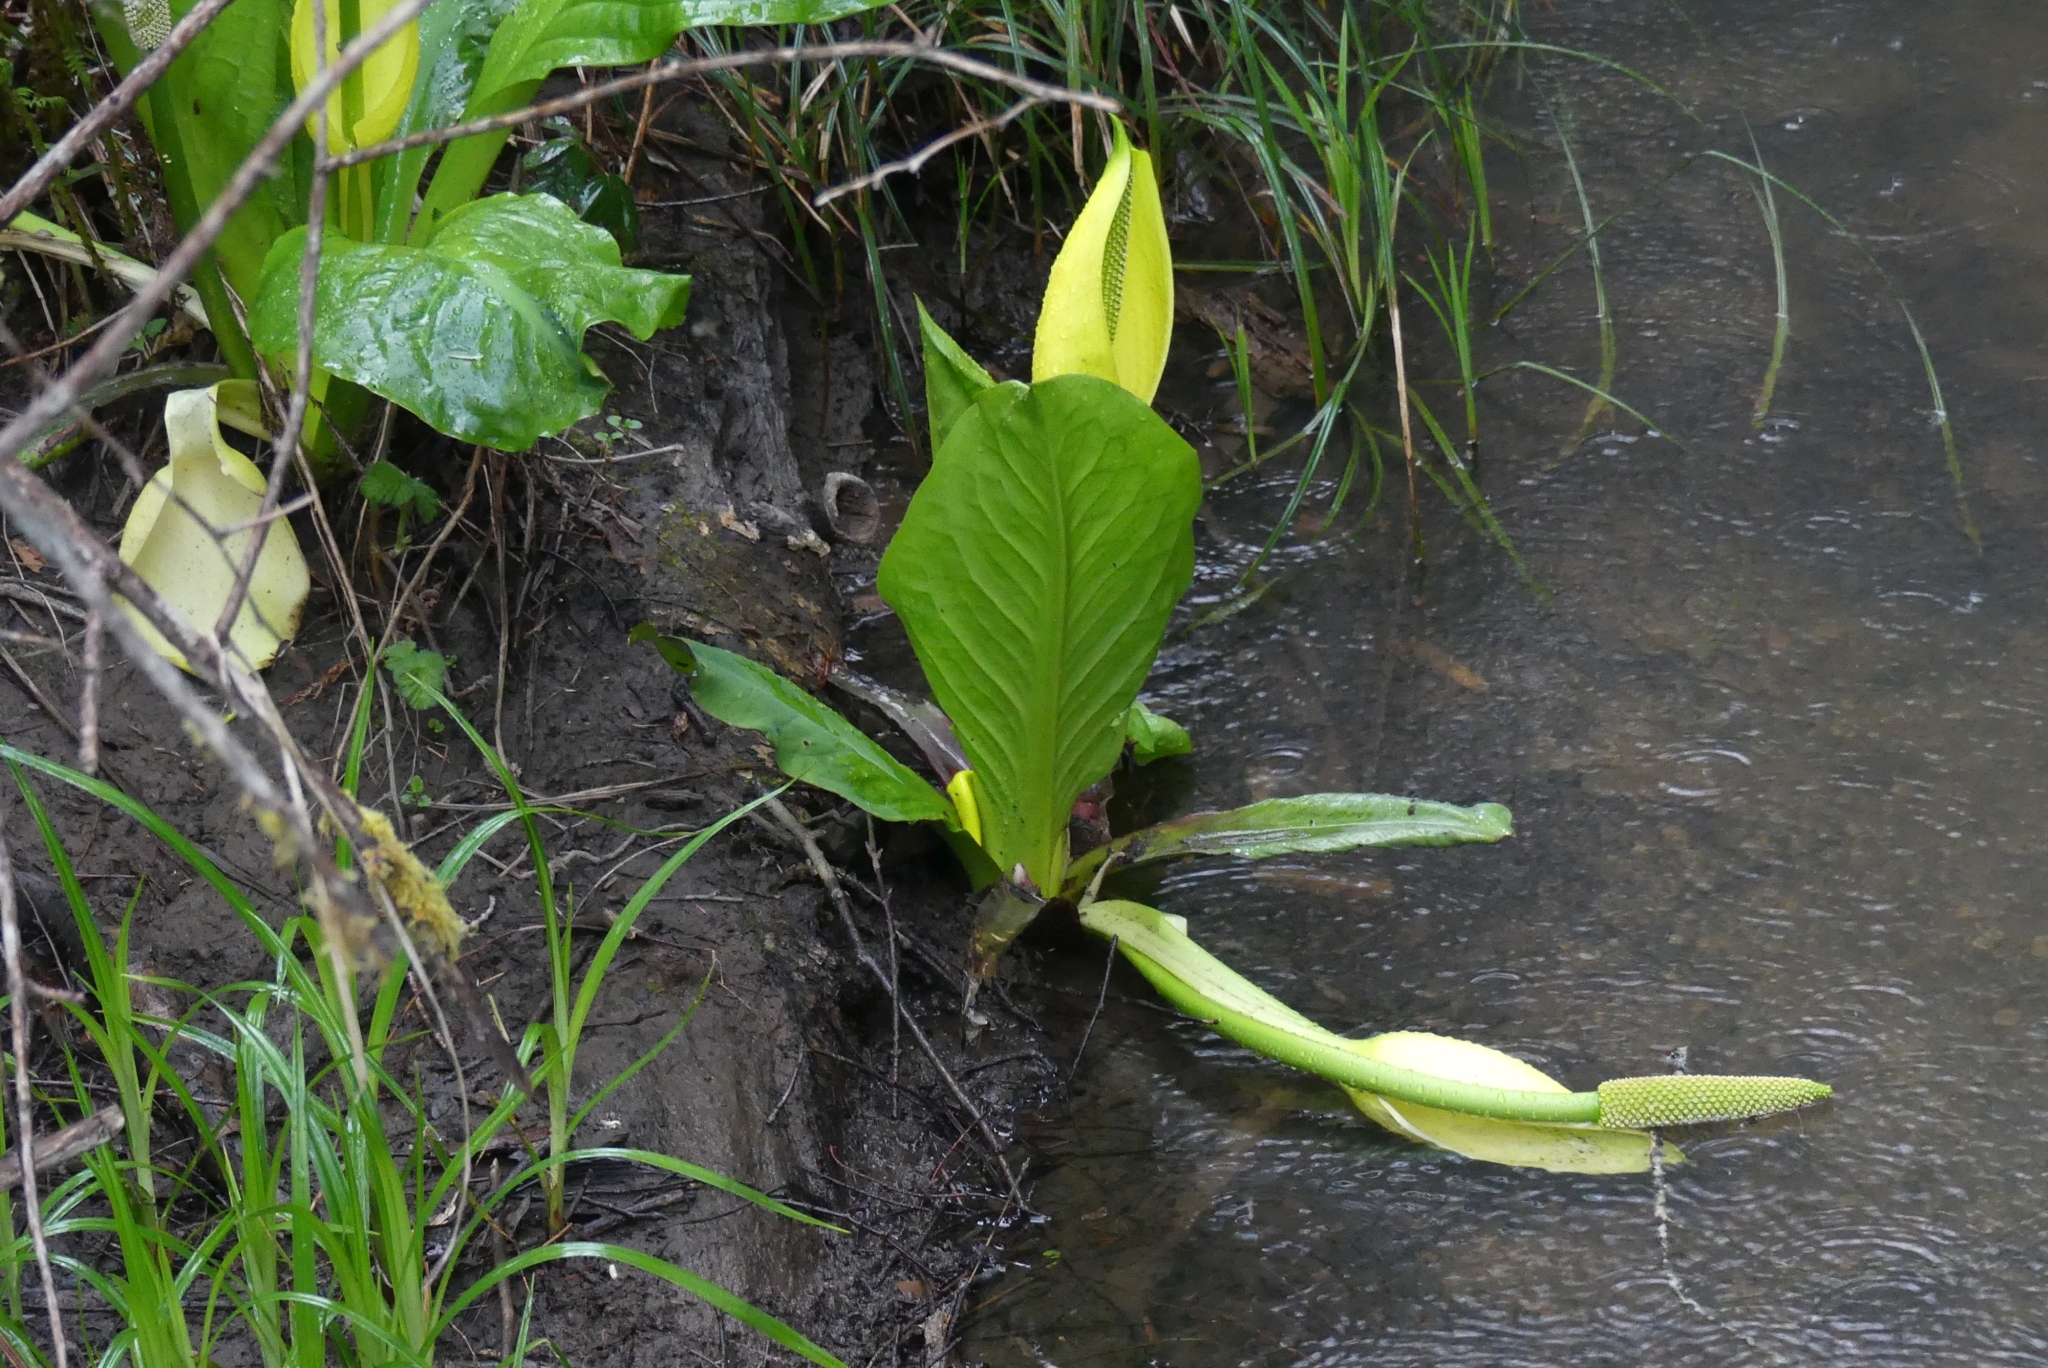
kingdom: Plantae
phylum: Tracheophyta
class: Liliopsida
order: Alismatales
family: Araceae
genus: Lysichiton
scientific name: Lysichiton americanus
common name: American skunk cabbage
